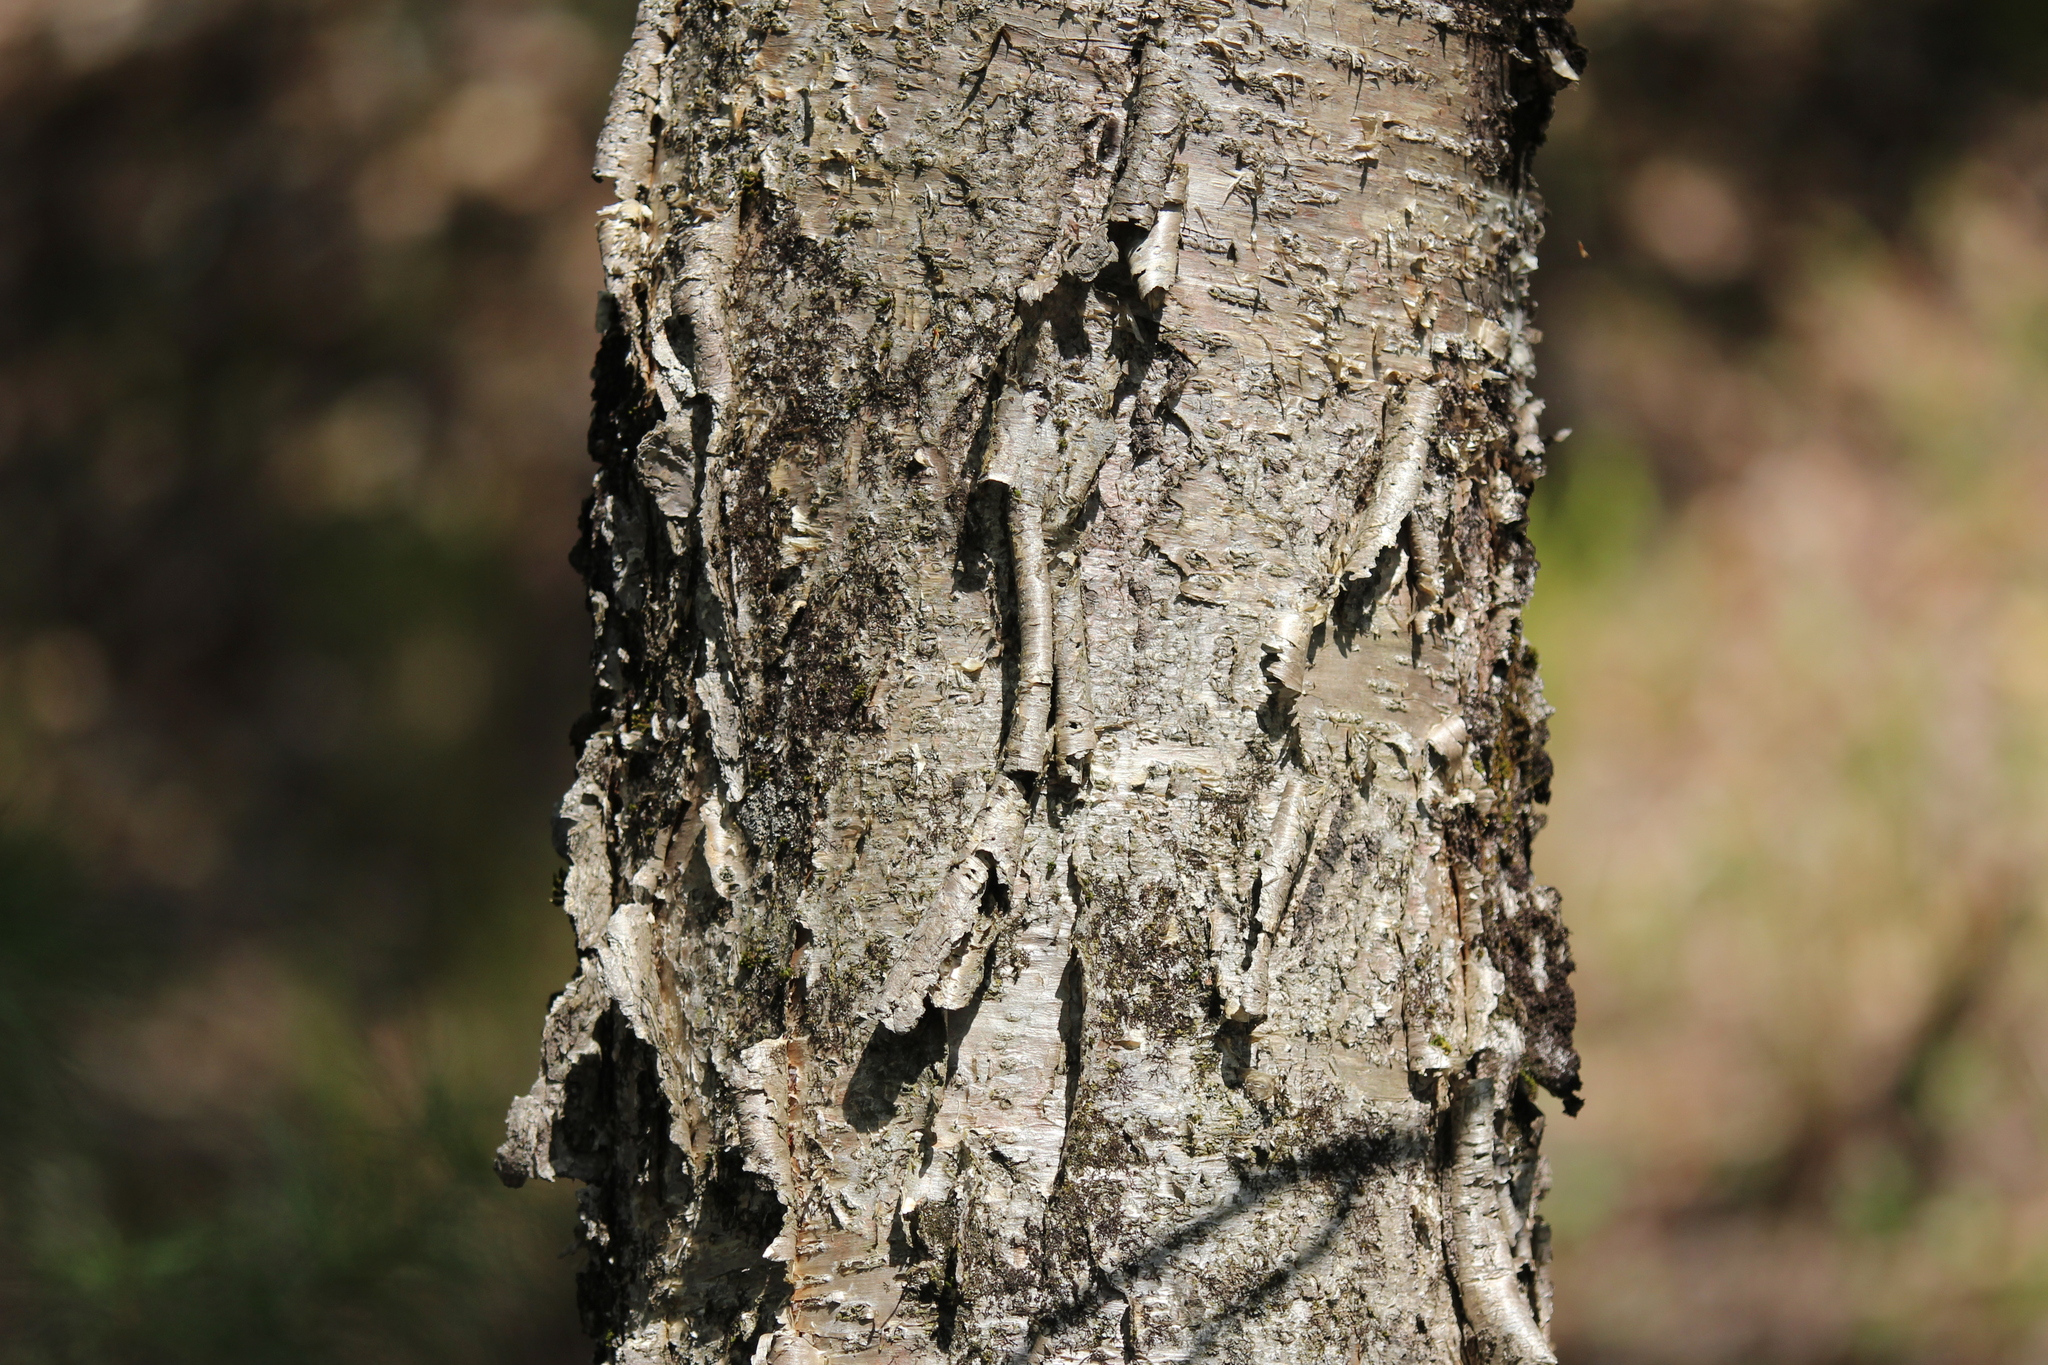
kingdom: Plantae
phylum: Tracheophyta
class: Magnoliopsida
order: Fagales
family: Betulaceae
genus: Betula
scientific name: Betula alleghaniensis
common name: Yellow birch
